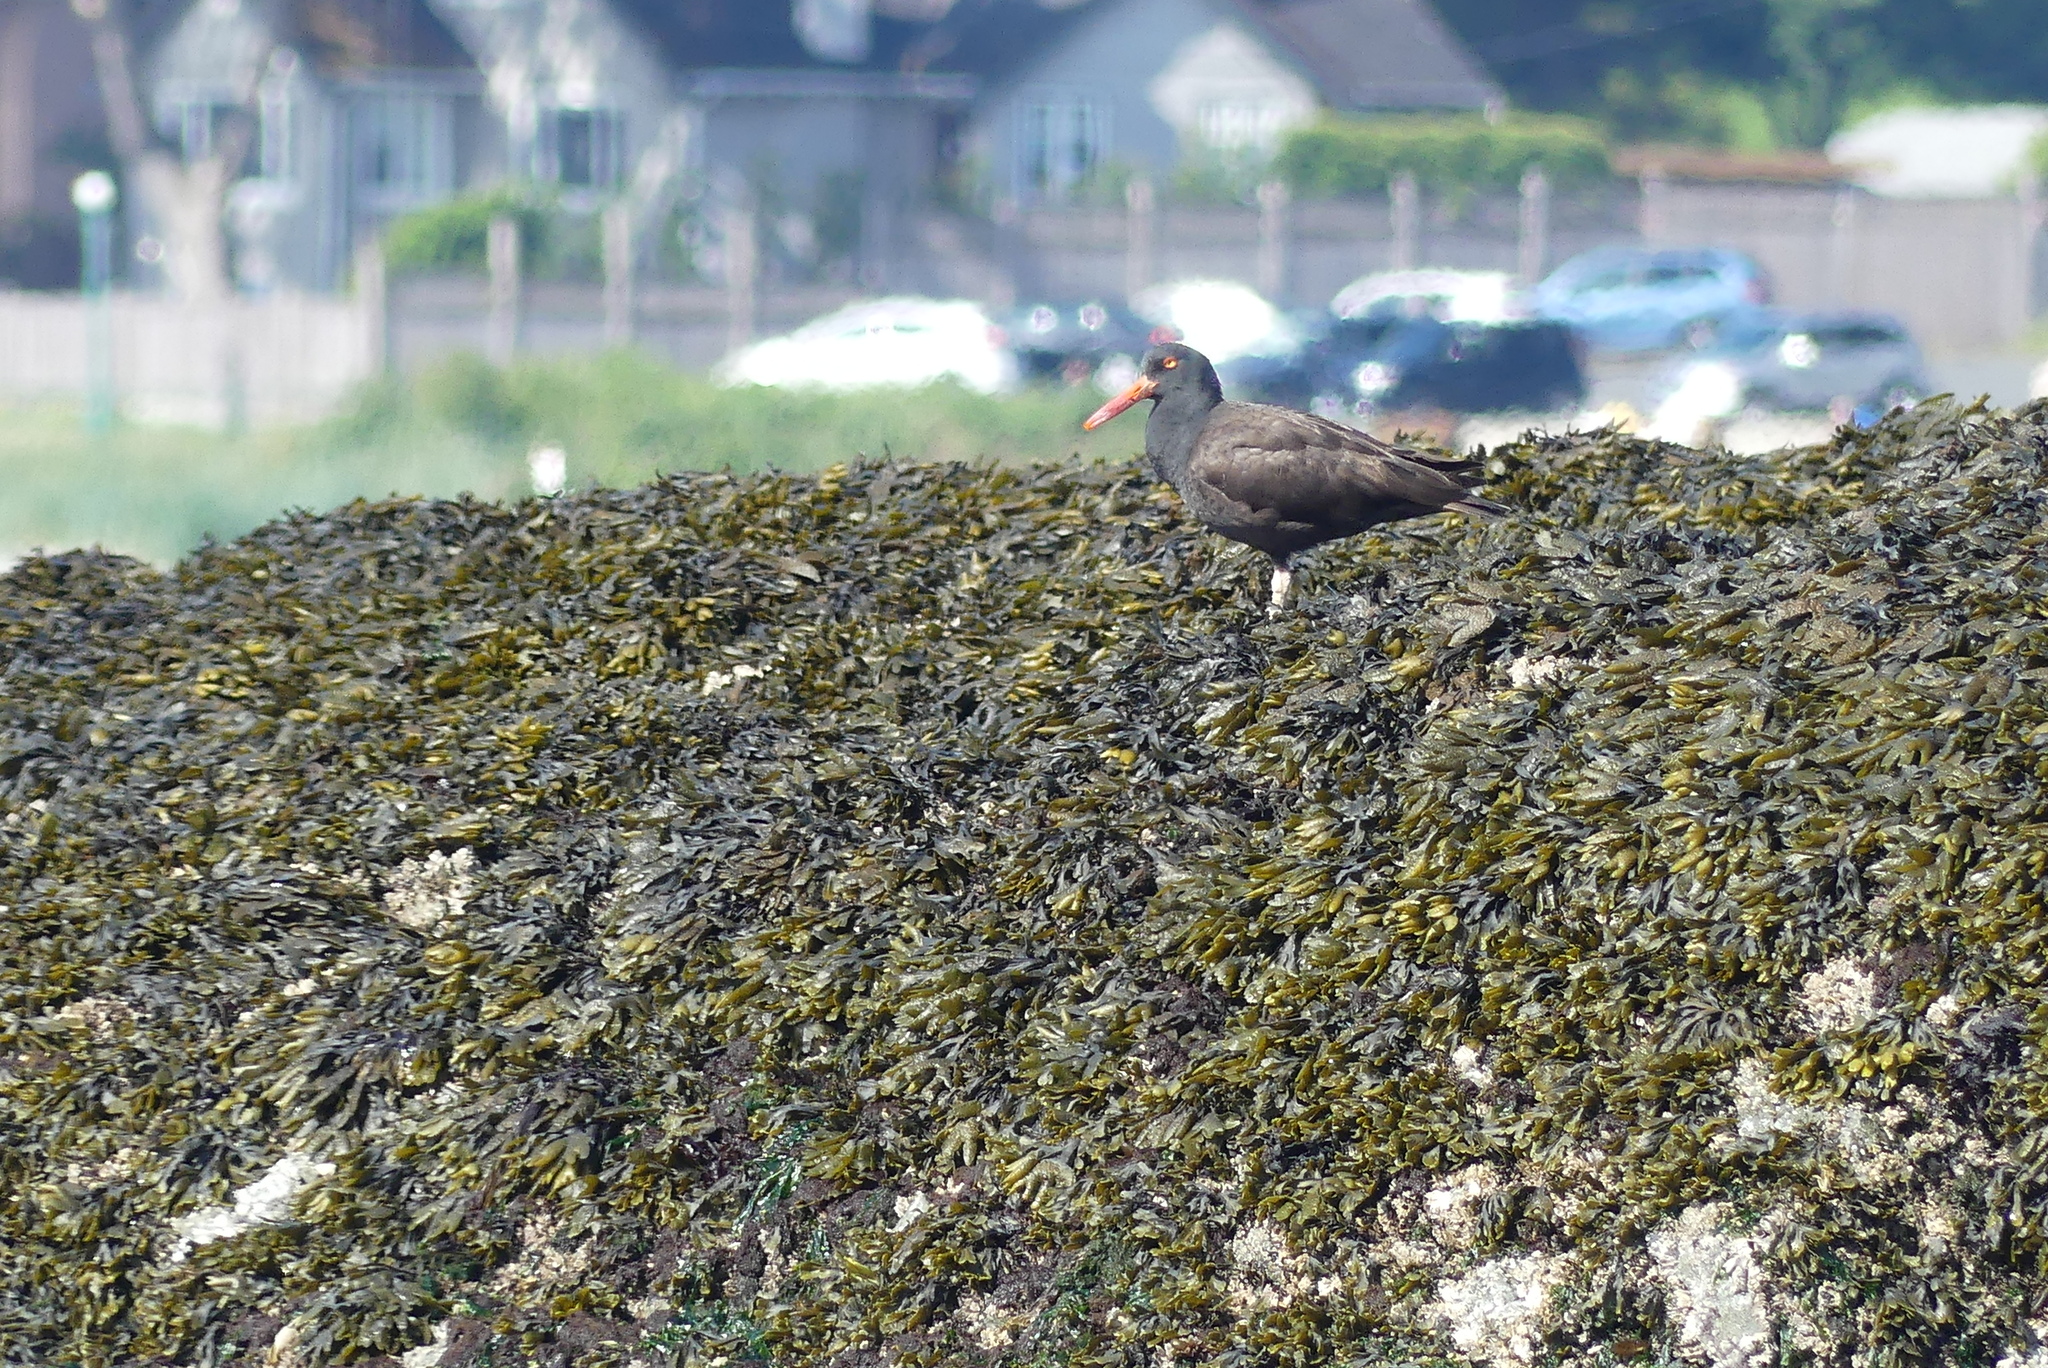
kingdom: Animalia
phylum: Chordata
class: Aves
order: Charadriiformes
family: Haematopodidae
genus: Haematopus
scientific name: Haematopus bachmani
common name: Black oystercatcher
